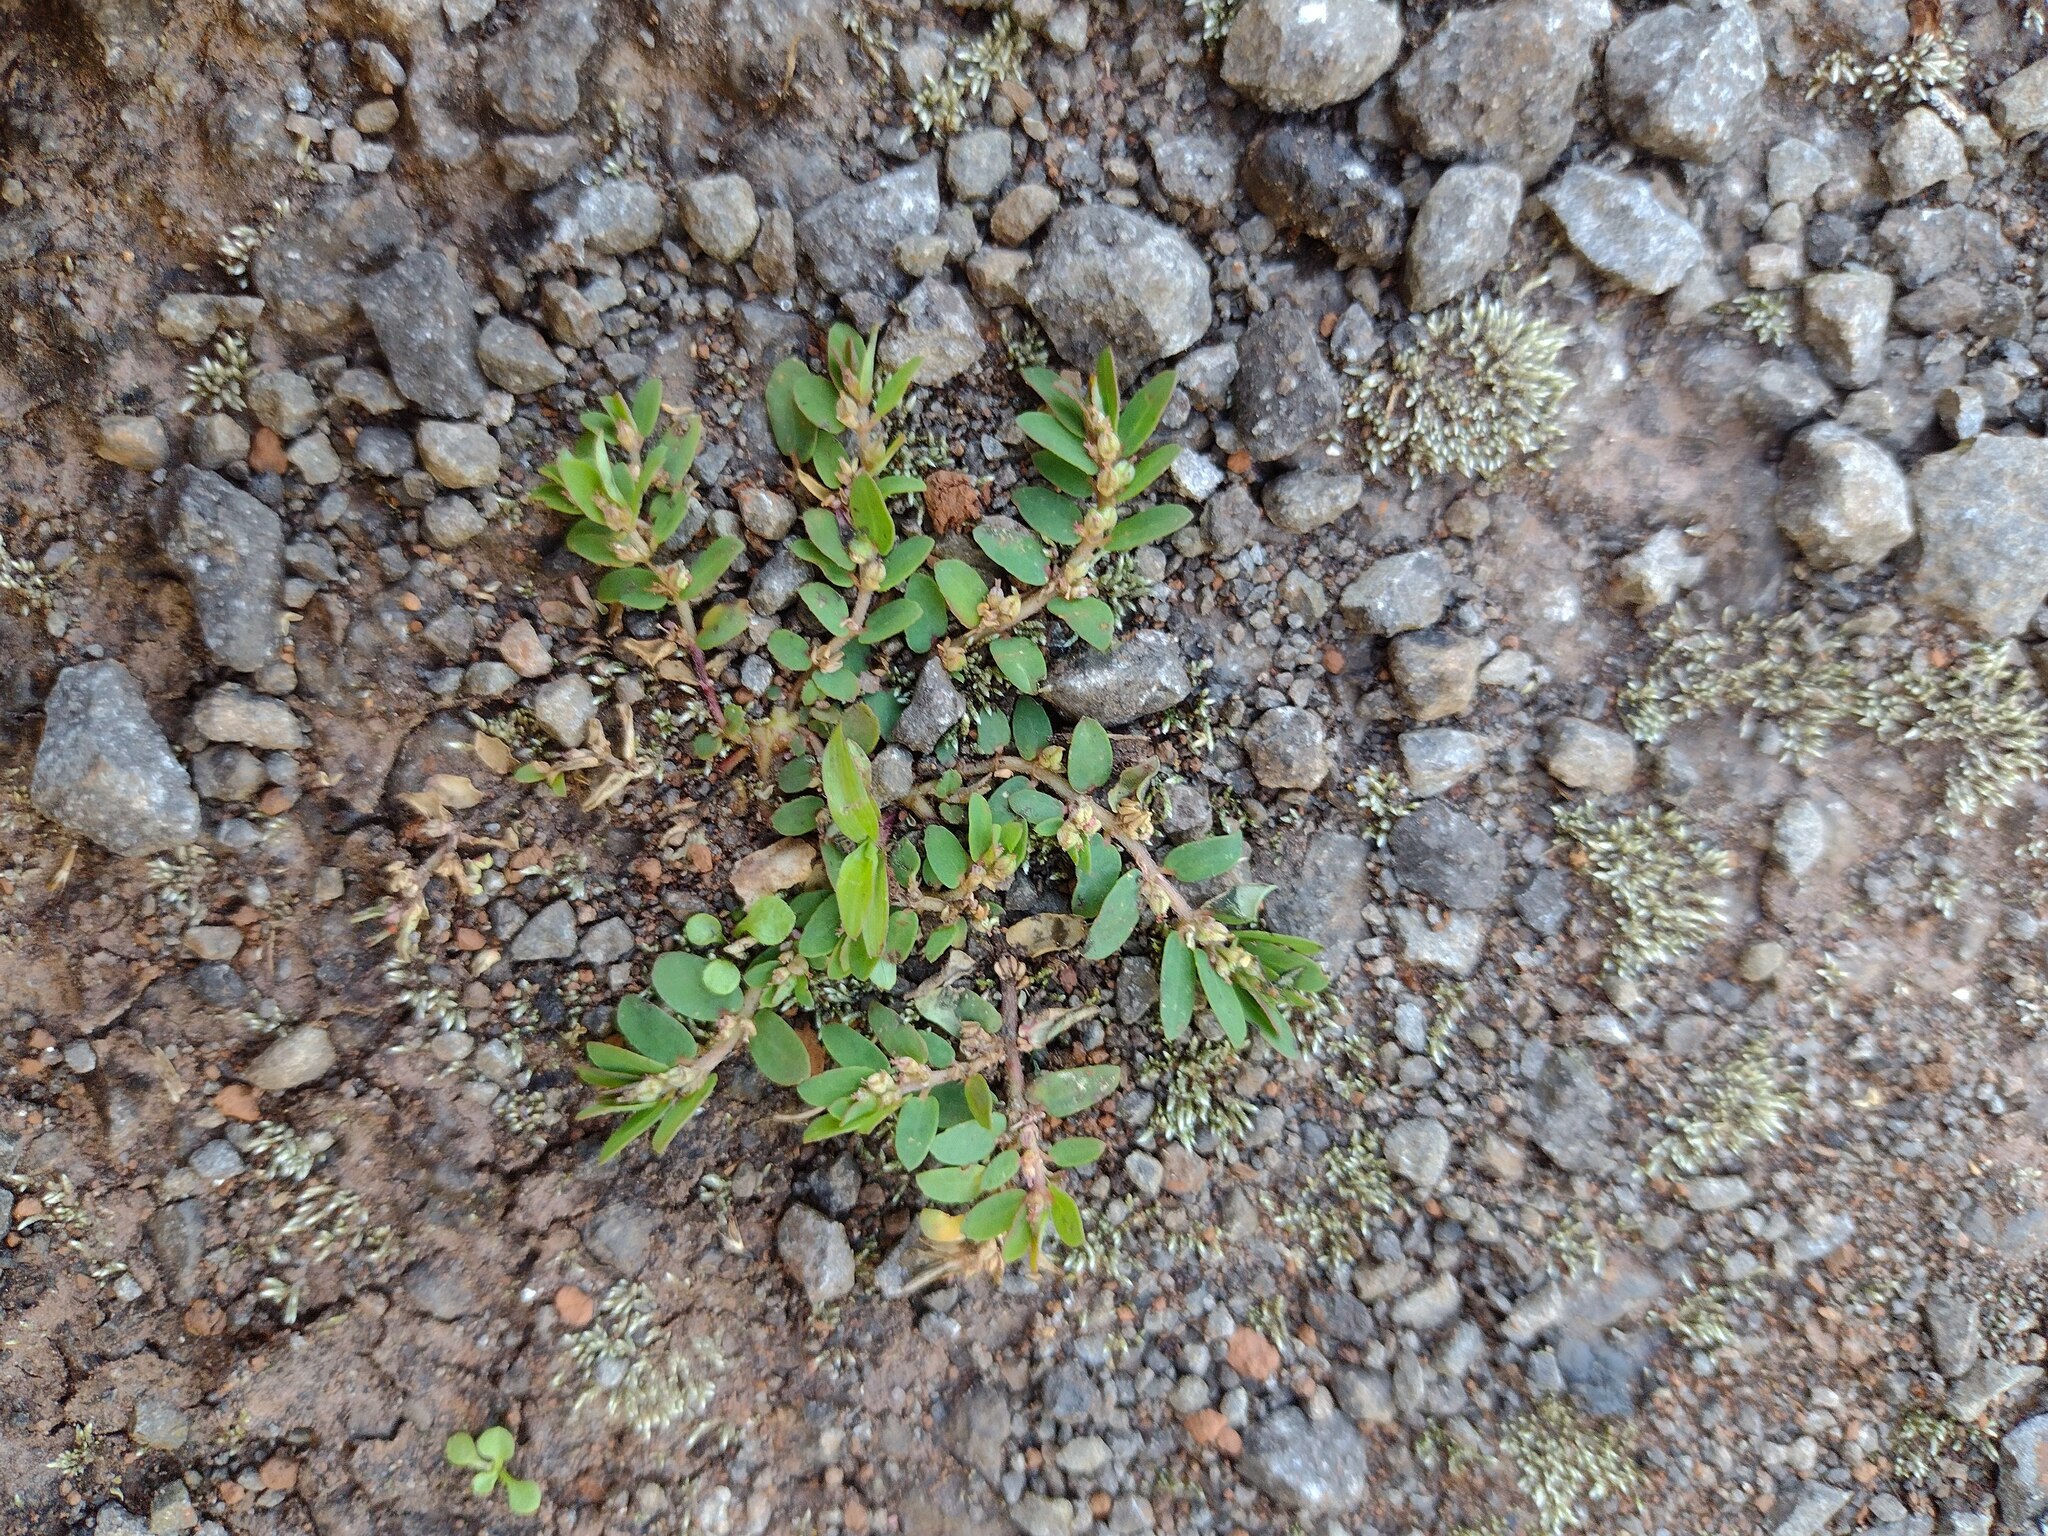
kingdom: Plantae
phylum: Tracheophyta
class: Magnoliopsida
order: Malpighiales
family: Euphorbiaceae
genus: Euphorbia
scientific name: Euphorbia thymifolia
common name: Gulf sandmat
